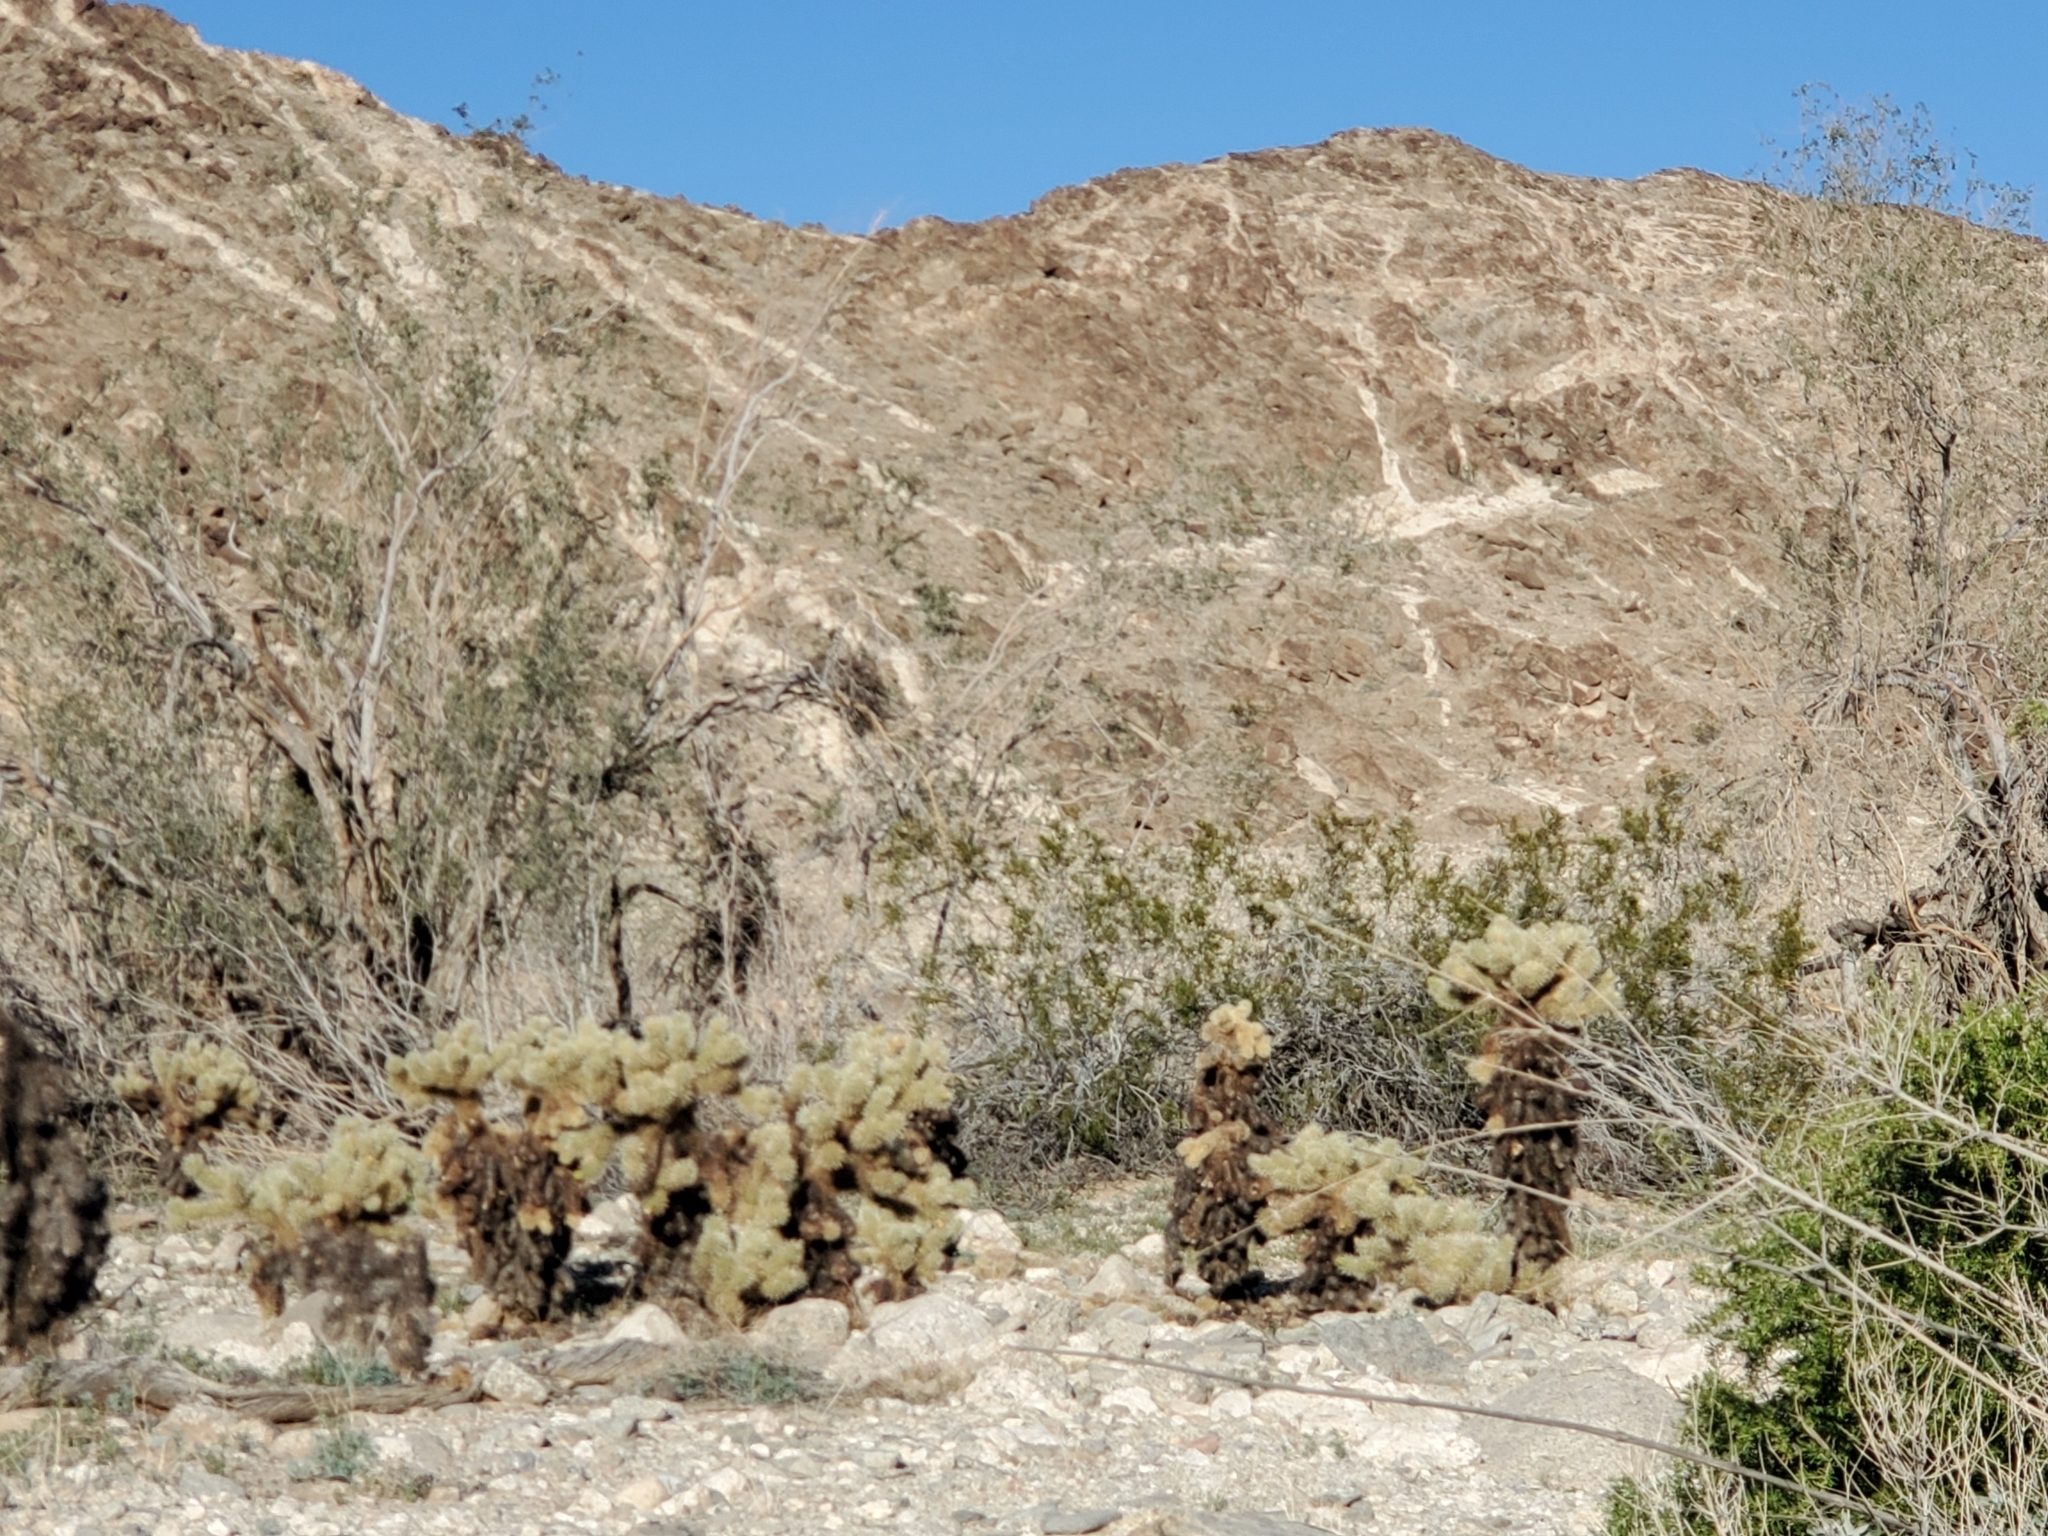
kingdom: Plantae
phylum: Tracheophyta
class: Magnoliopsida
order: Caryophyllales
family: Cactaceae
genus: Cylindropuntia
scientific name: Cylindropuntia fosbergii
